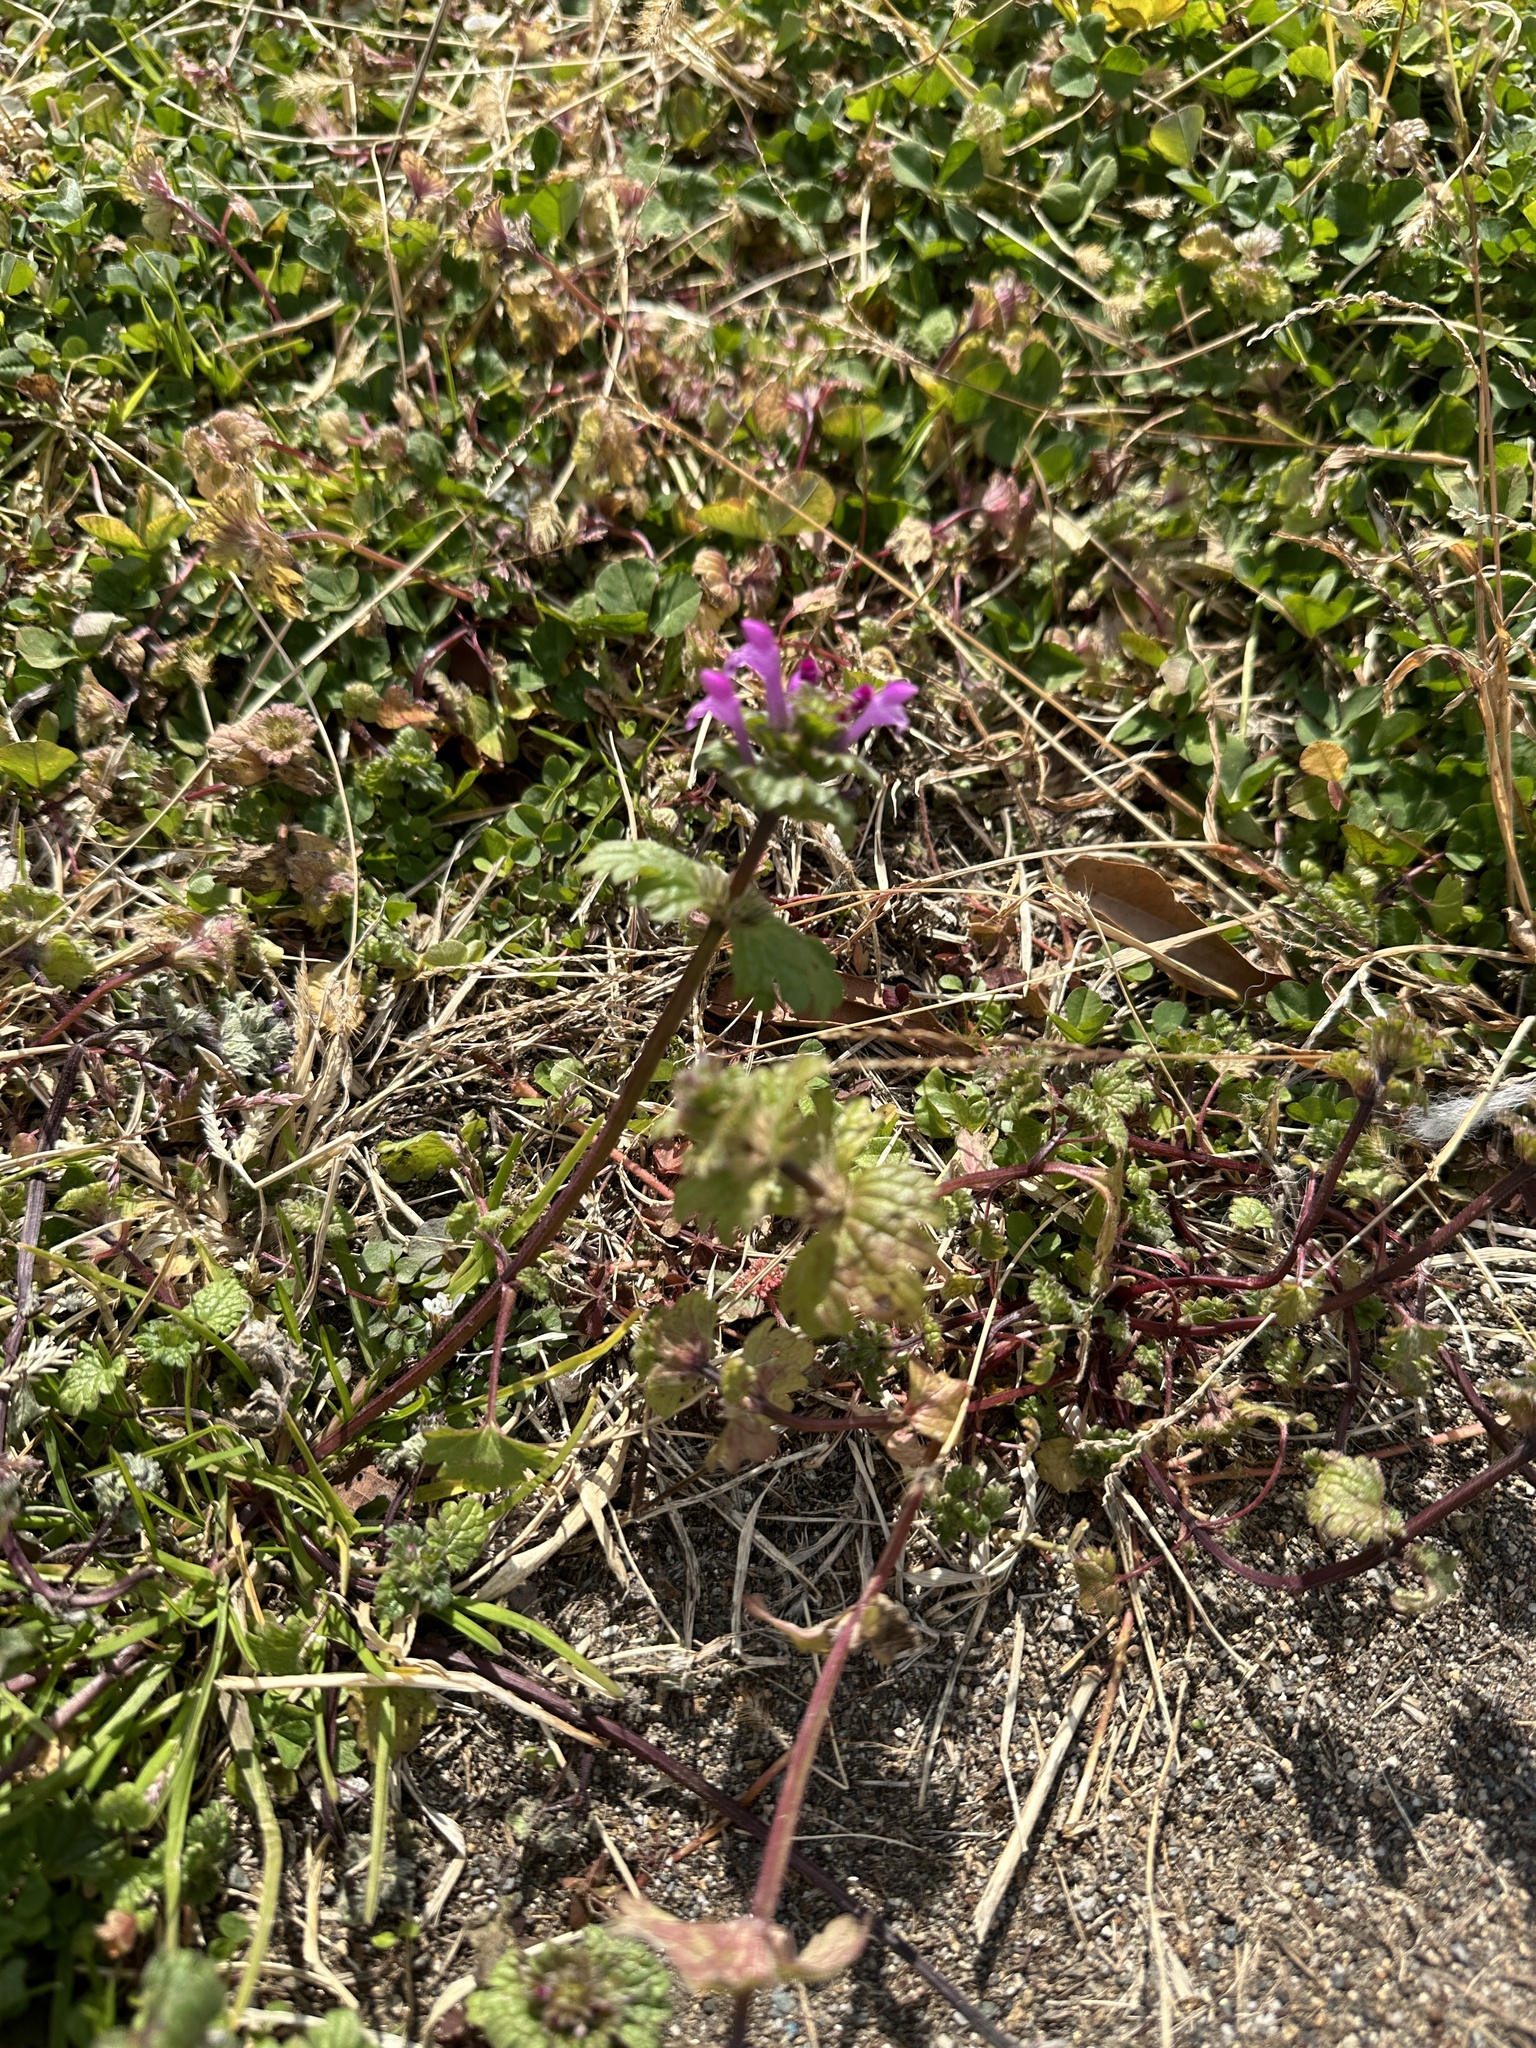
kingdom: Plantae
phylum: Tracheophyta
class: Magnoliopsida
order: Lamiales
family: Lamiaceae
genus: Lamium
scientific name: Lamium amplexicaule
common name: Henbit dead-nettle
